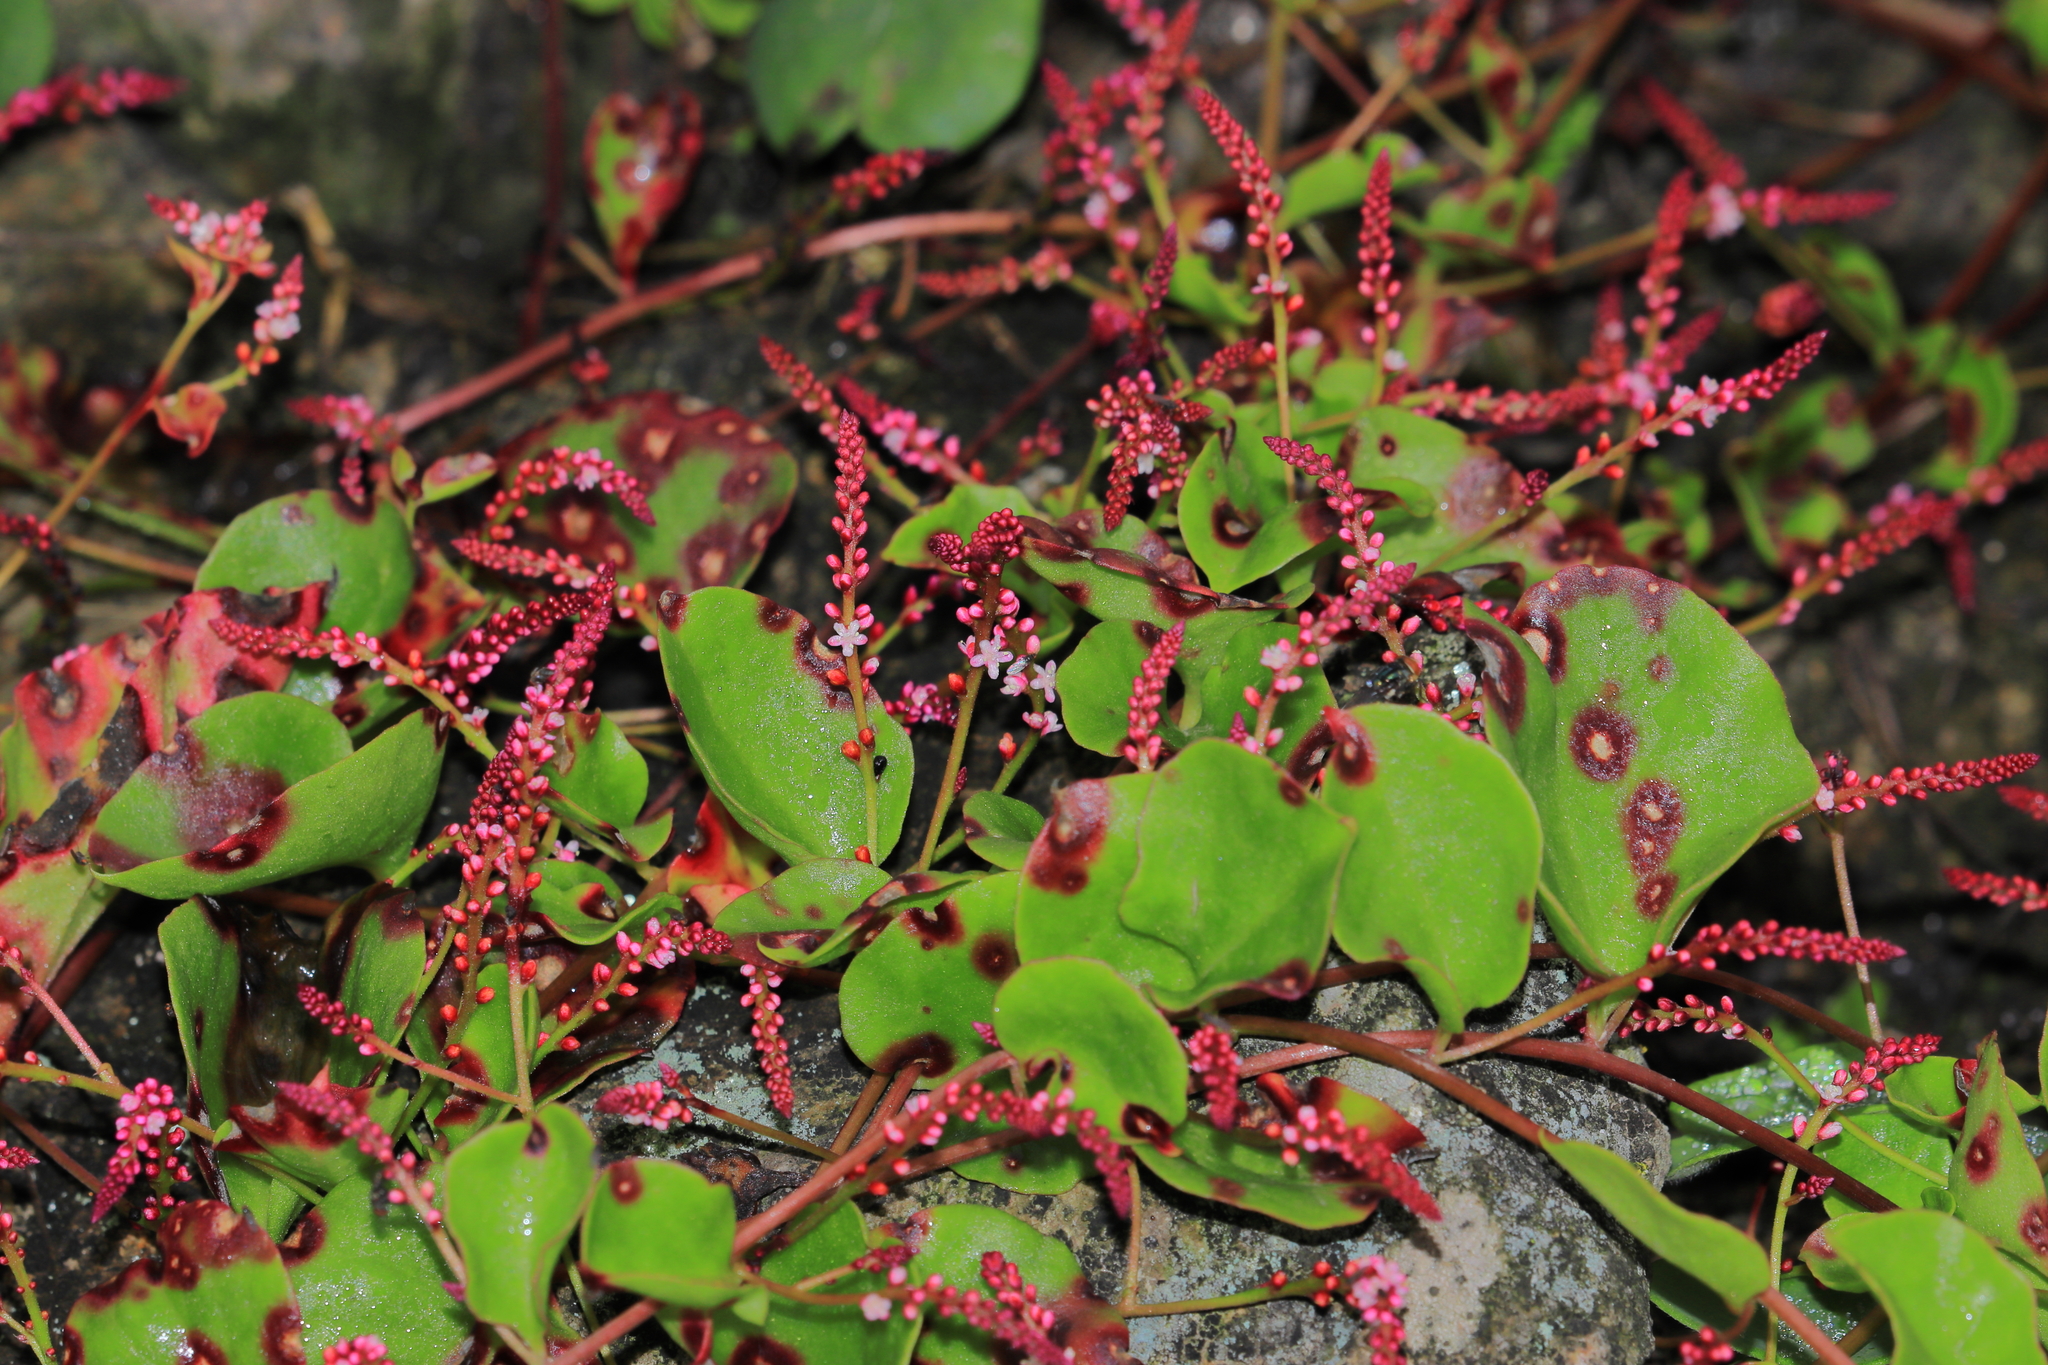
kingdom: Plantae
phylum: Tracheophyta
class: Magnoliopsida
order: Caryophyllales
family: Basellaceae
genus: Anredera
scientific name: Anredera diffusa
